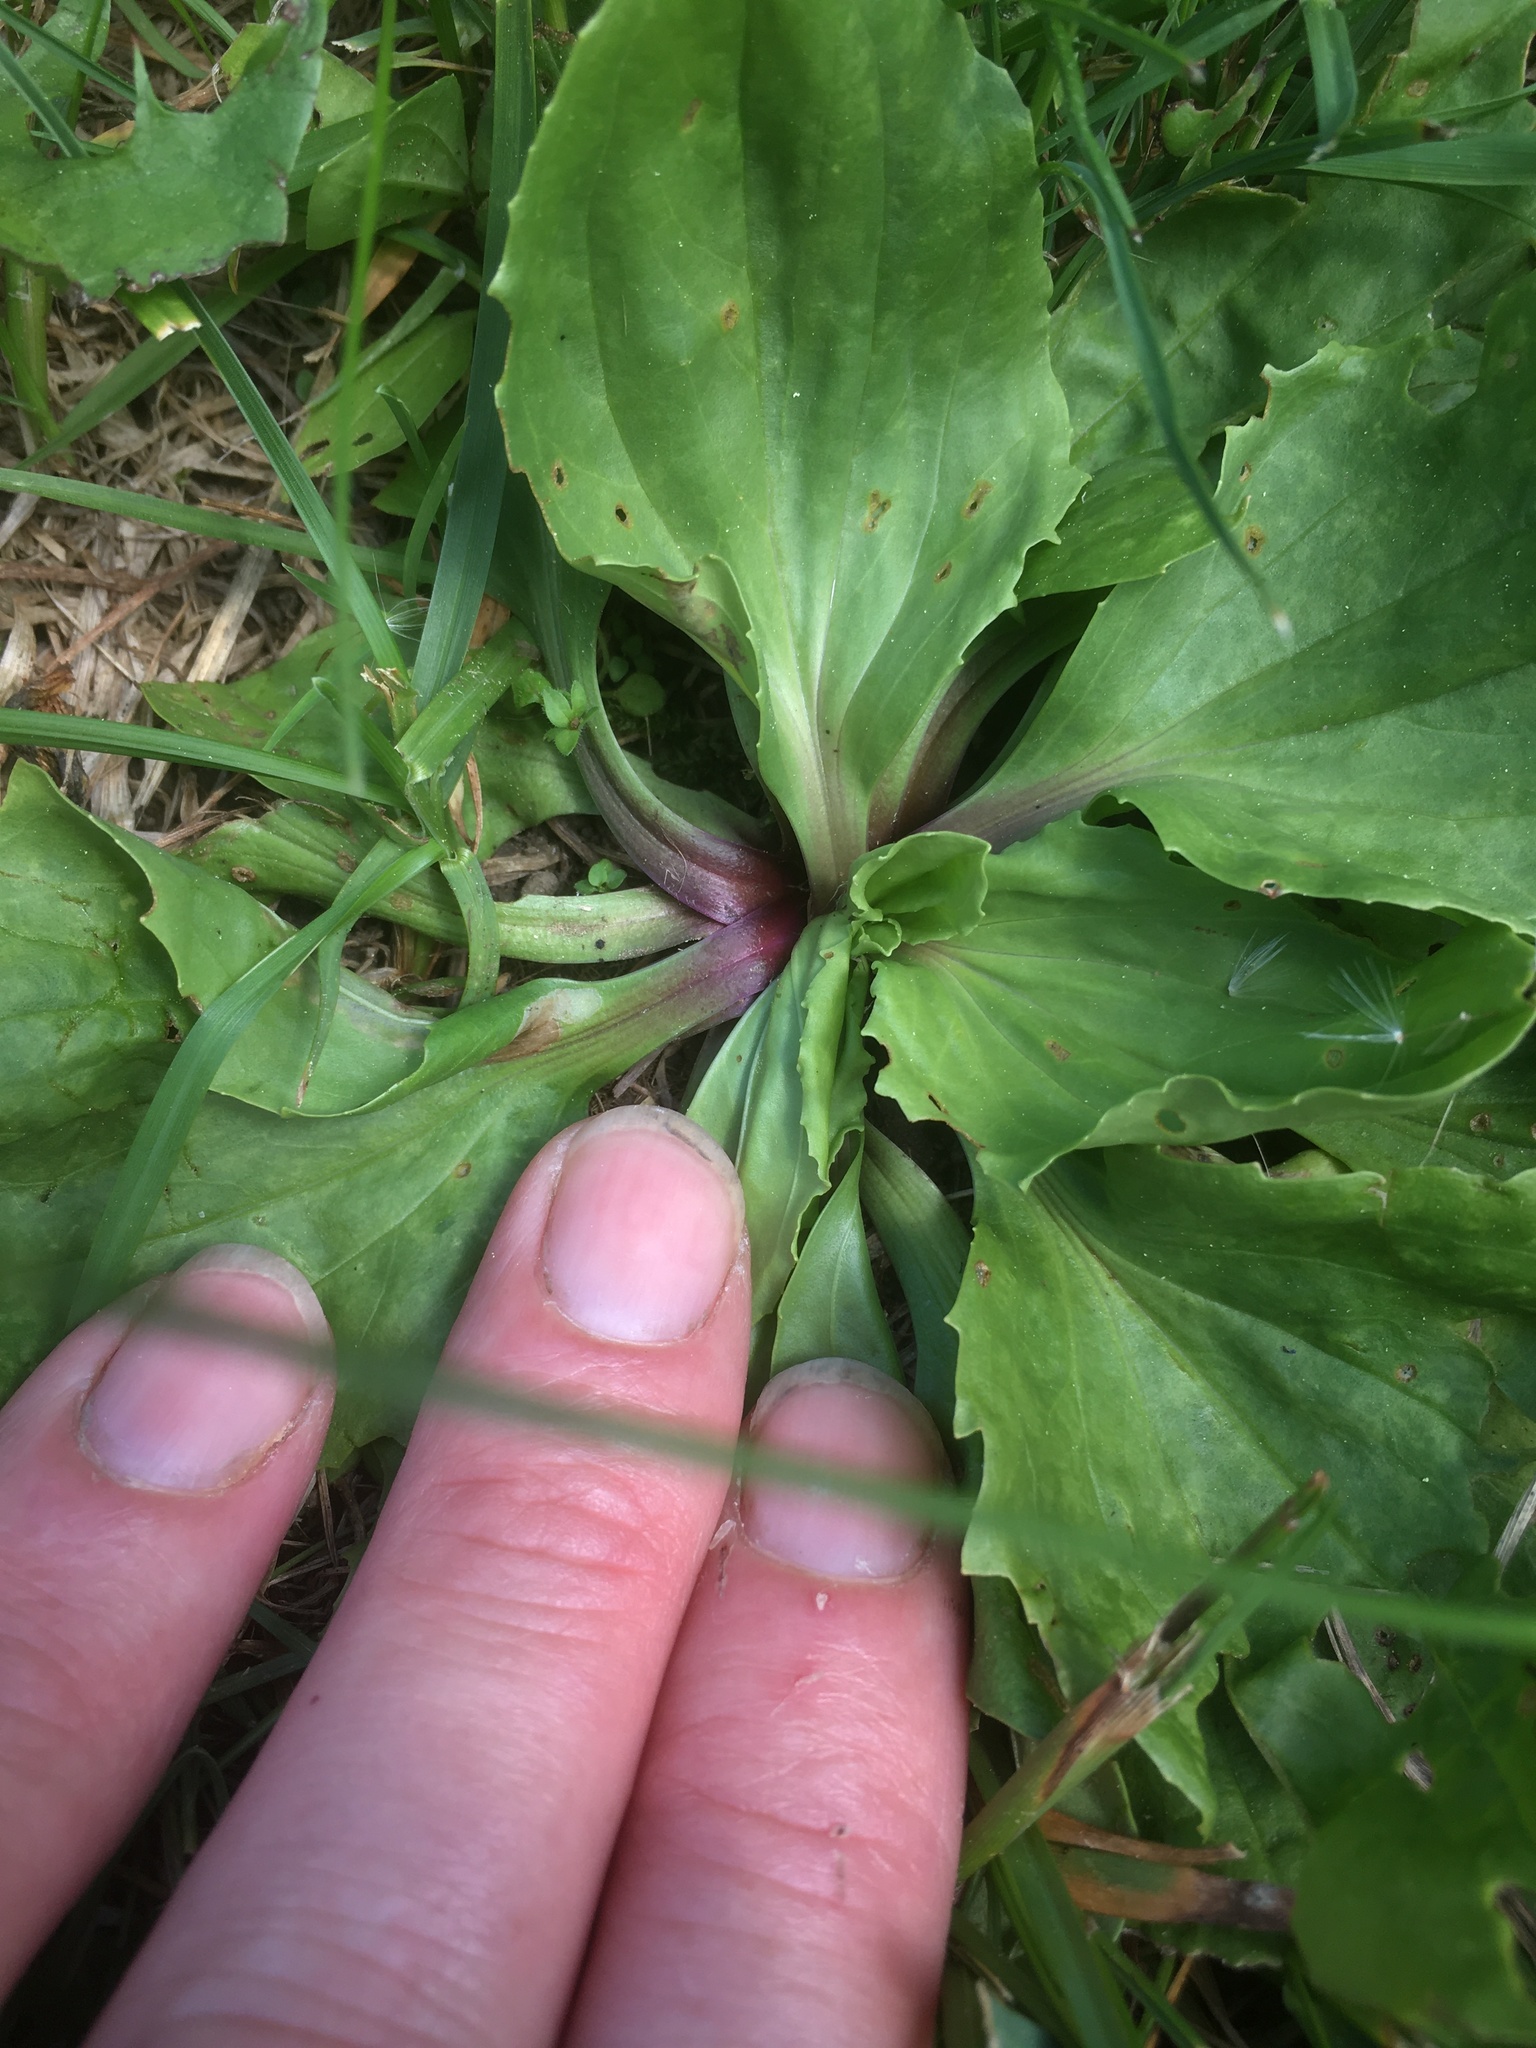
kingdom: Plantae
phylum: Tracheophyta
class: Magnoliopsida
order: Lamiales
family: Plantaginaceae
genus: Plantago
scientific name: Plantago rugelii
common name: American plantain
